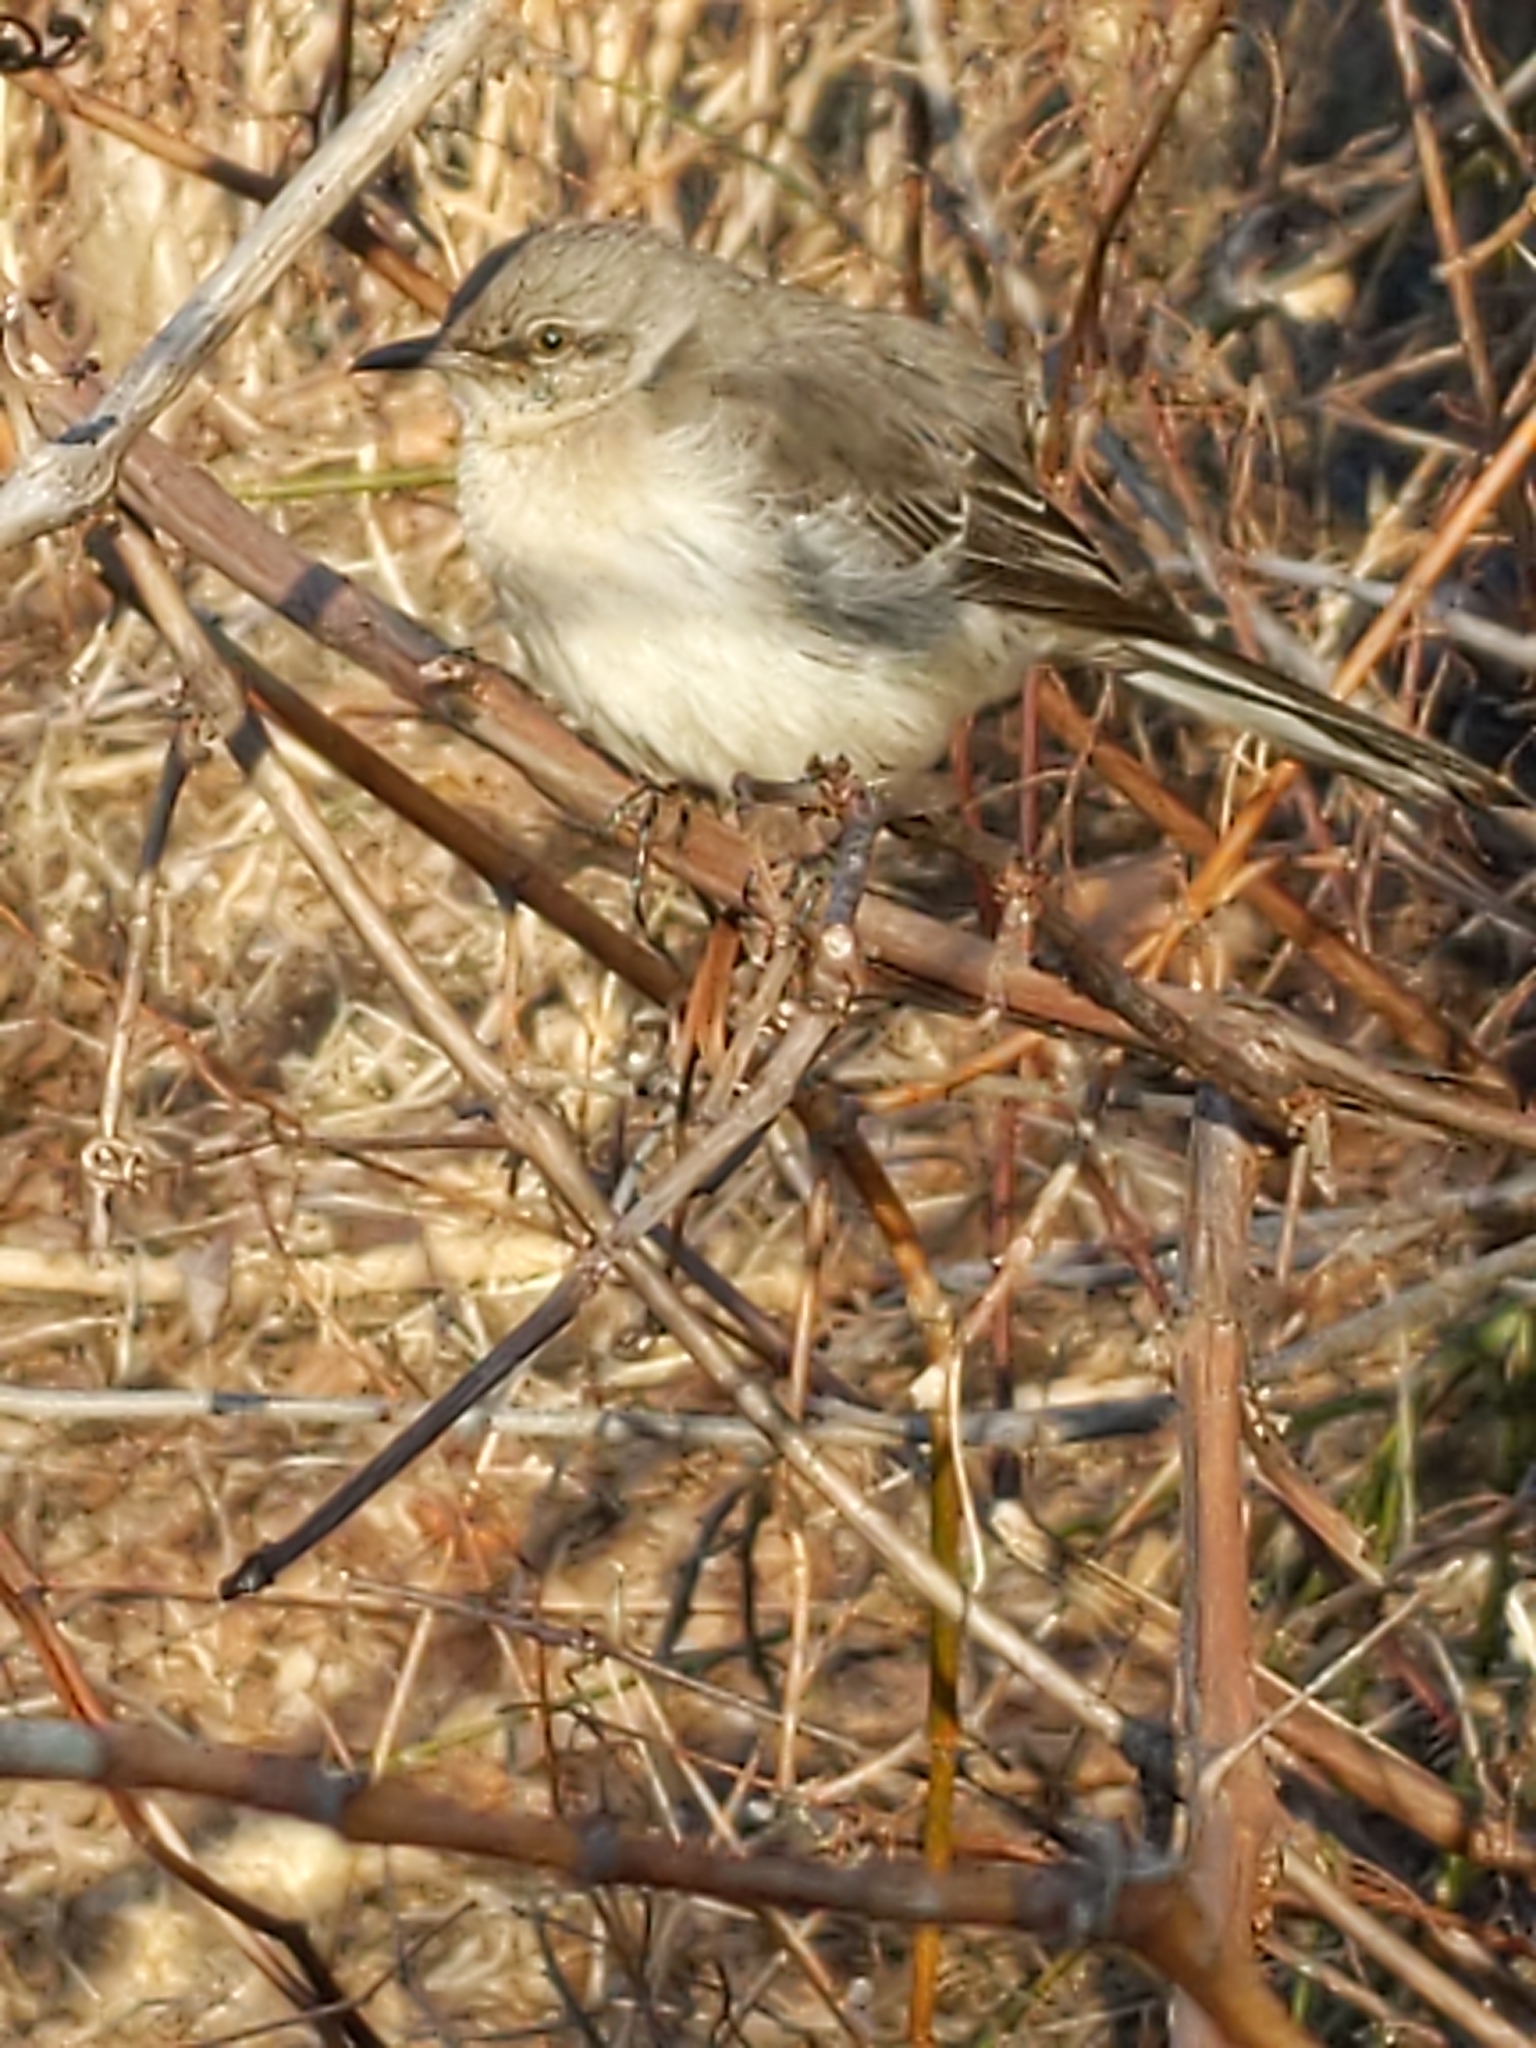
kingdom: Animalia
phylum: Chordata
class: Aves
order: Passeriformes
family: Mimidae
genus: Mimus
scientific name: Mimus polyglottos
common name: Northern mockingbird
